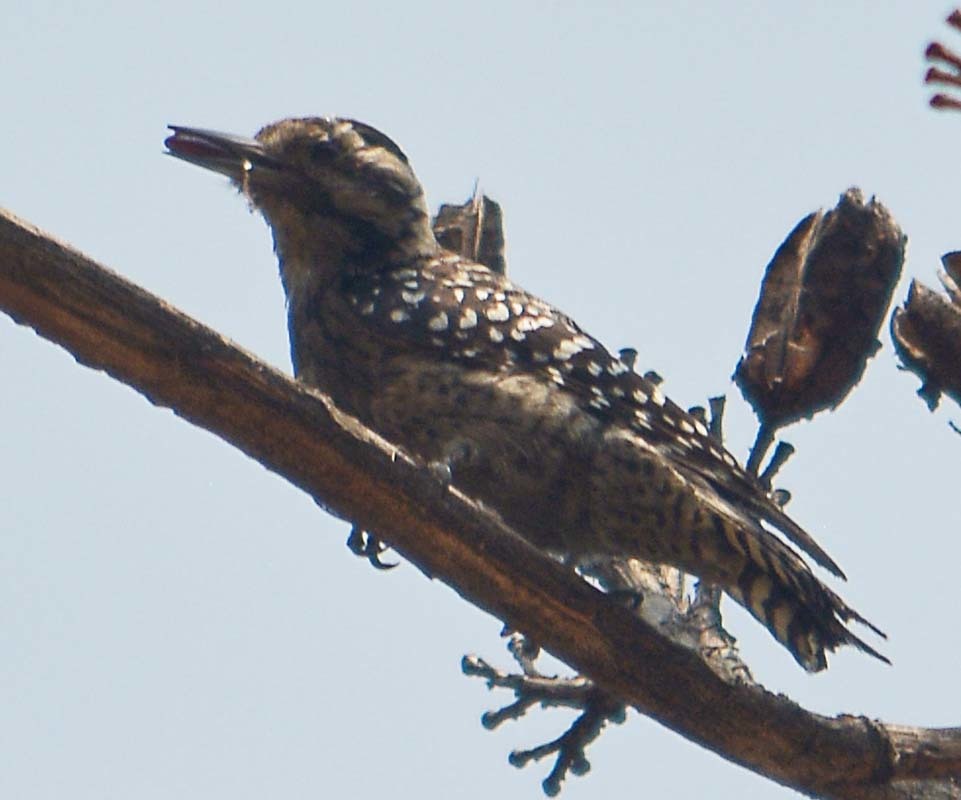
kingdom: Animalia
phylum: Chordata
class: Aves
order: Piciformes
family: Picidae
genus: Dryobates
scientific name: Dryobates scalaris
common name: Ladder-backed woodpecker
